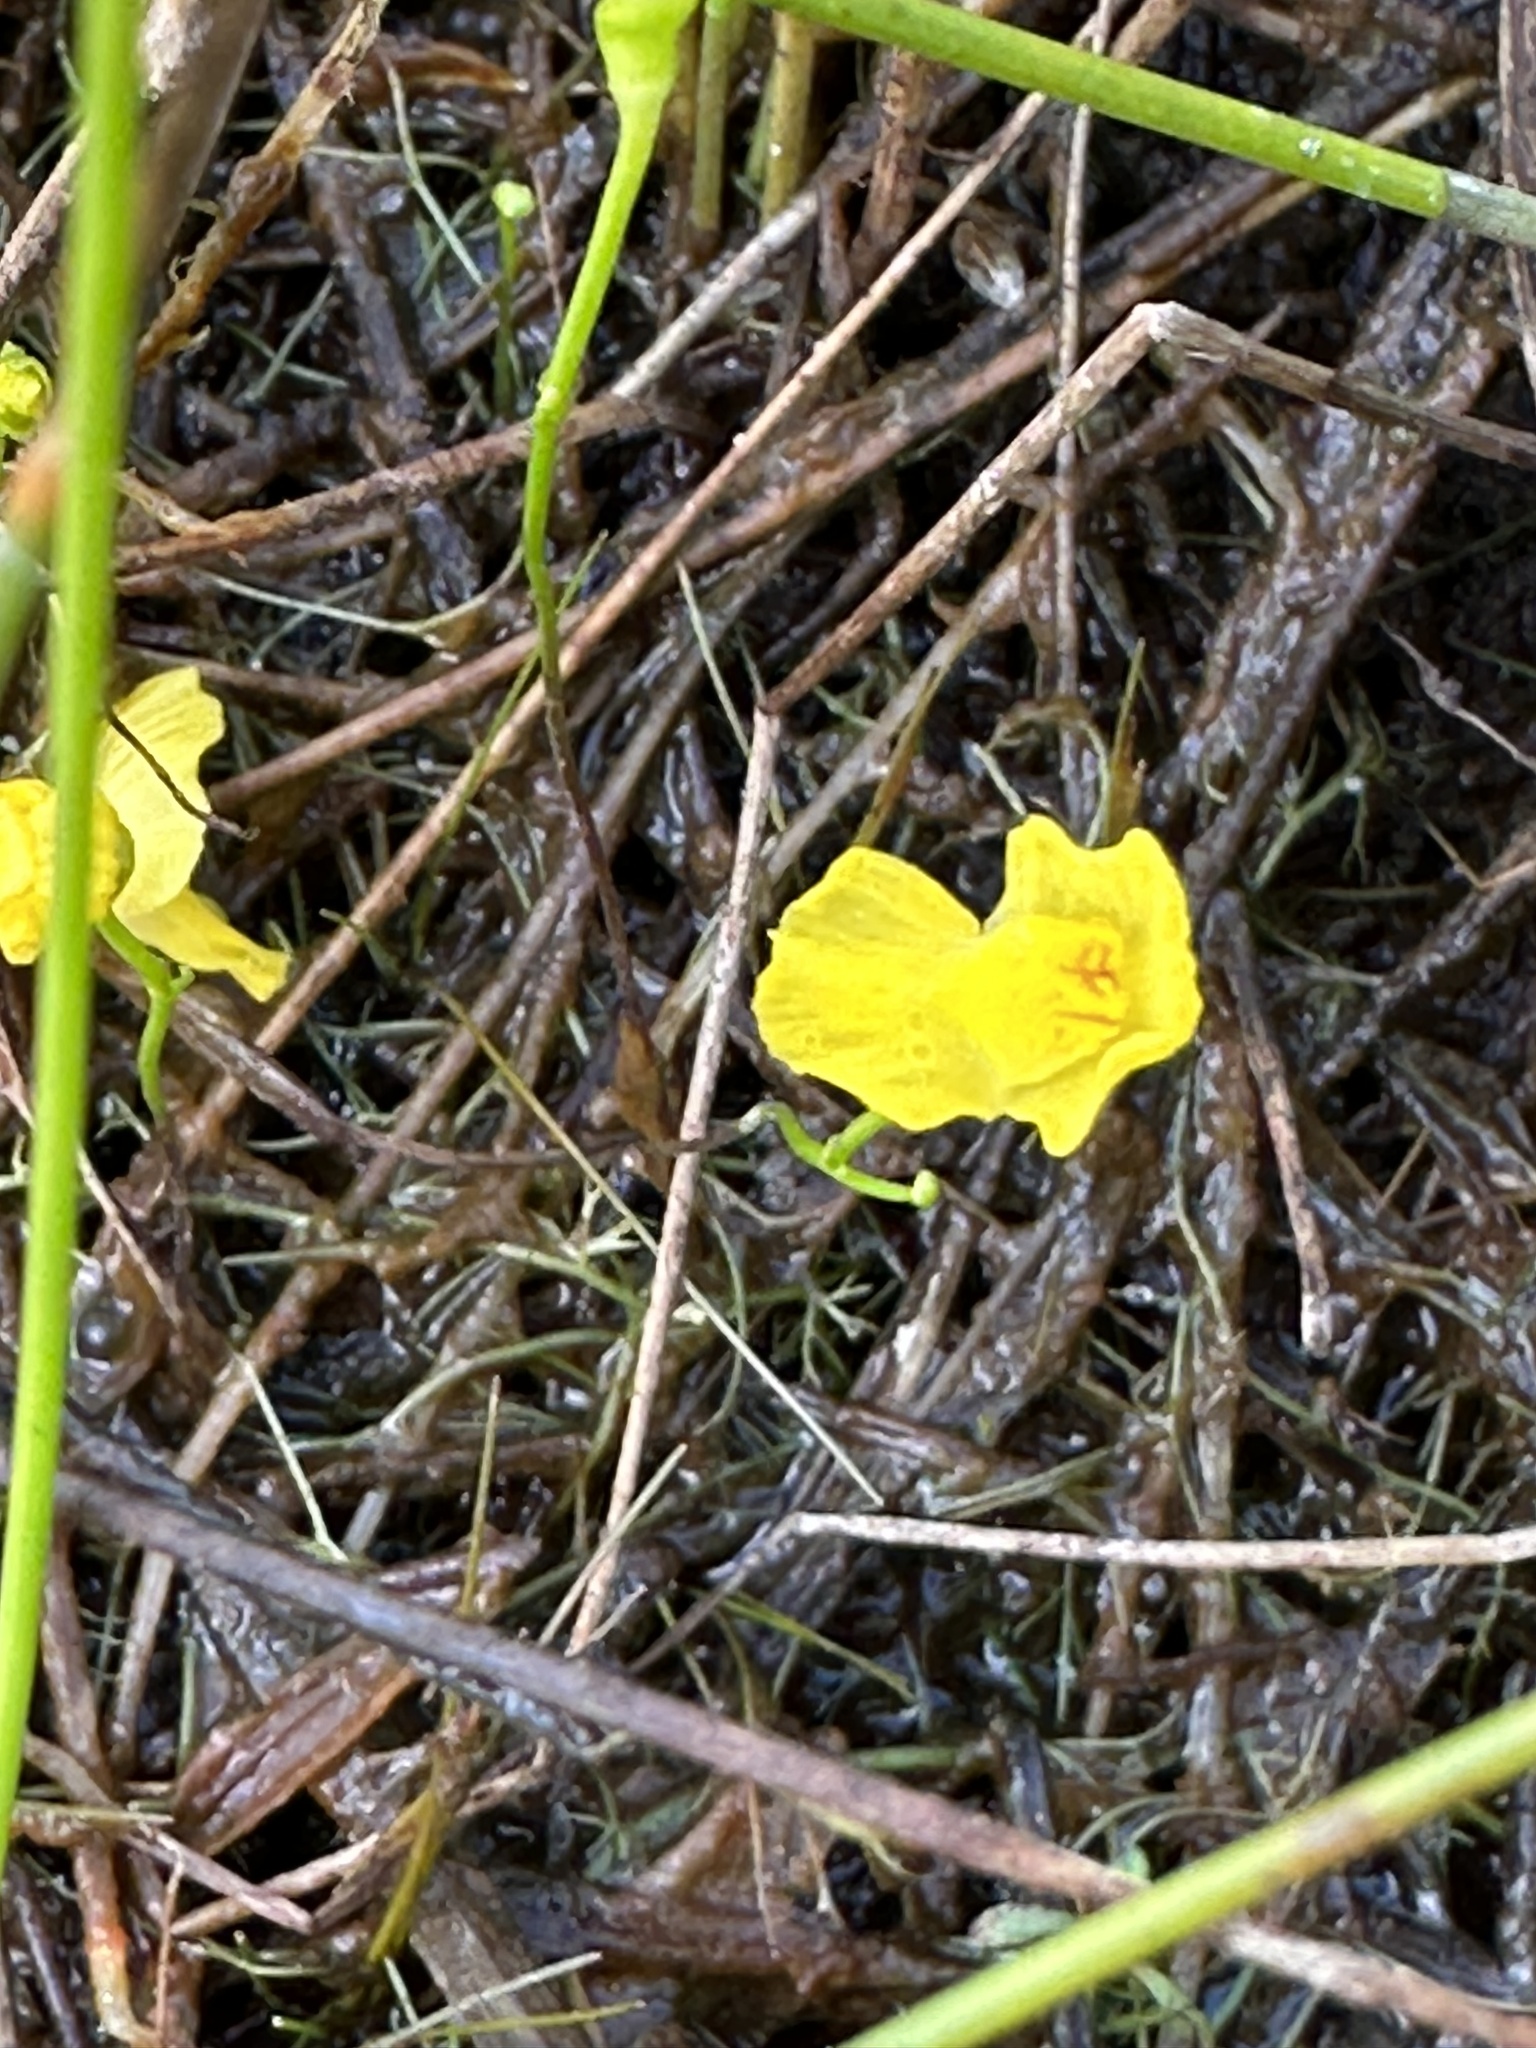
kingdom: Plantae
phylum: Tracheophyta
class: Magnoliopsida
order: Lamiales
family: Lentibulariaceae
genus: Utricularia
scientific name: Utricularia gibba
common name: Humped bladderwort
